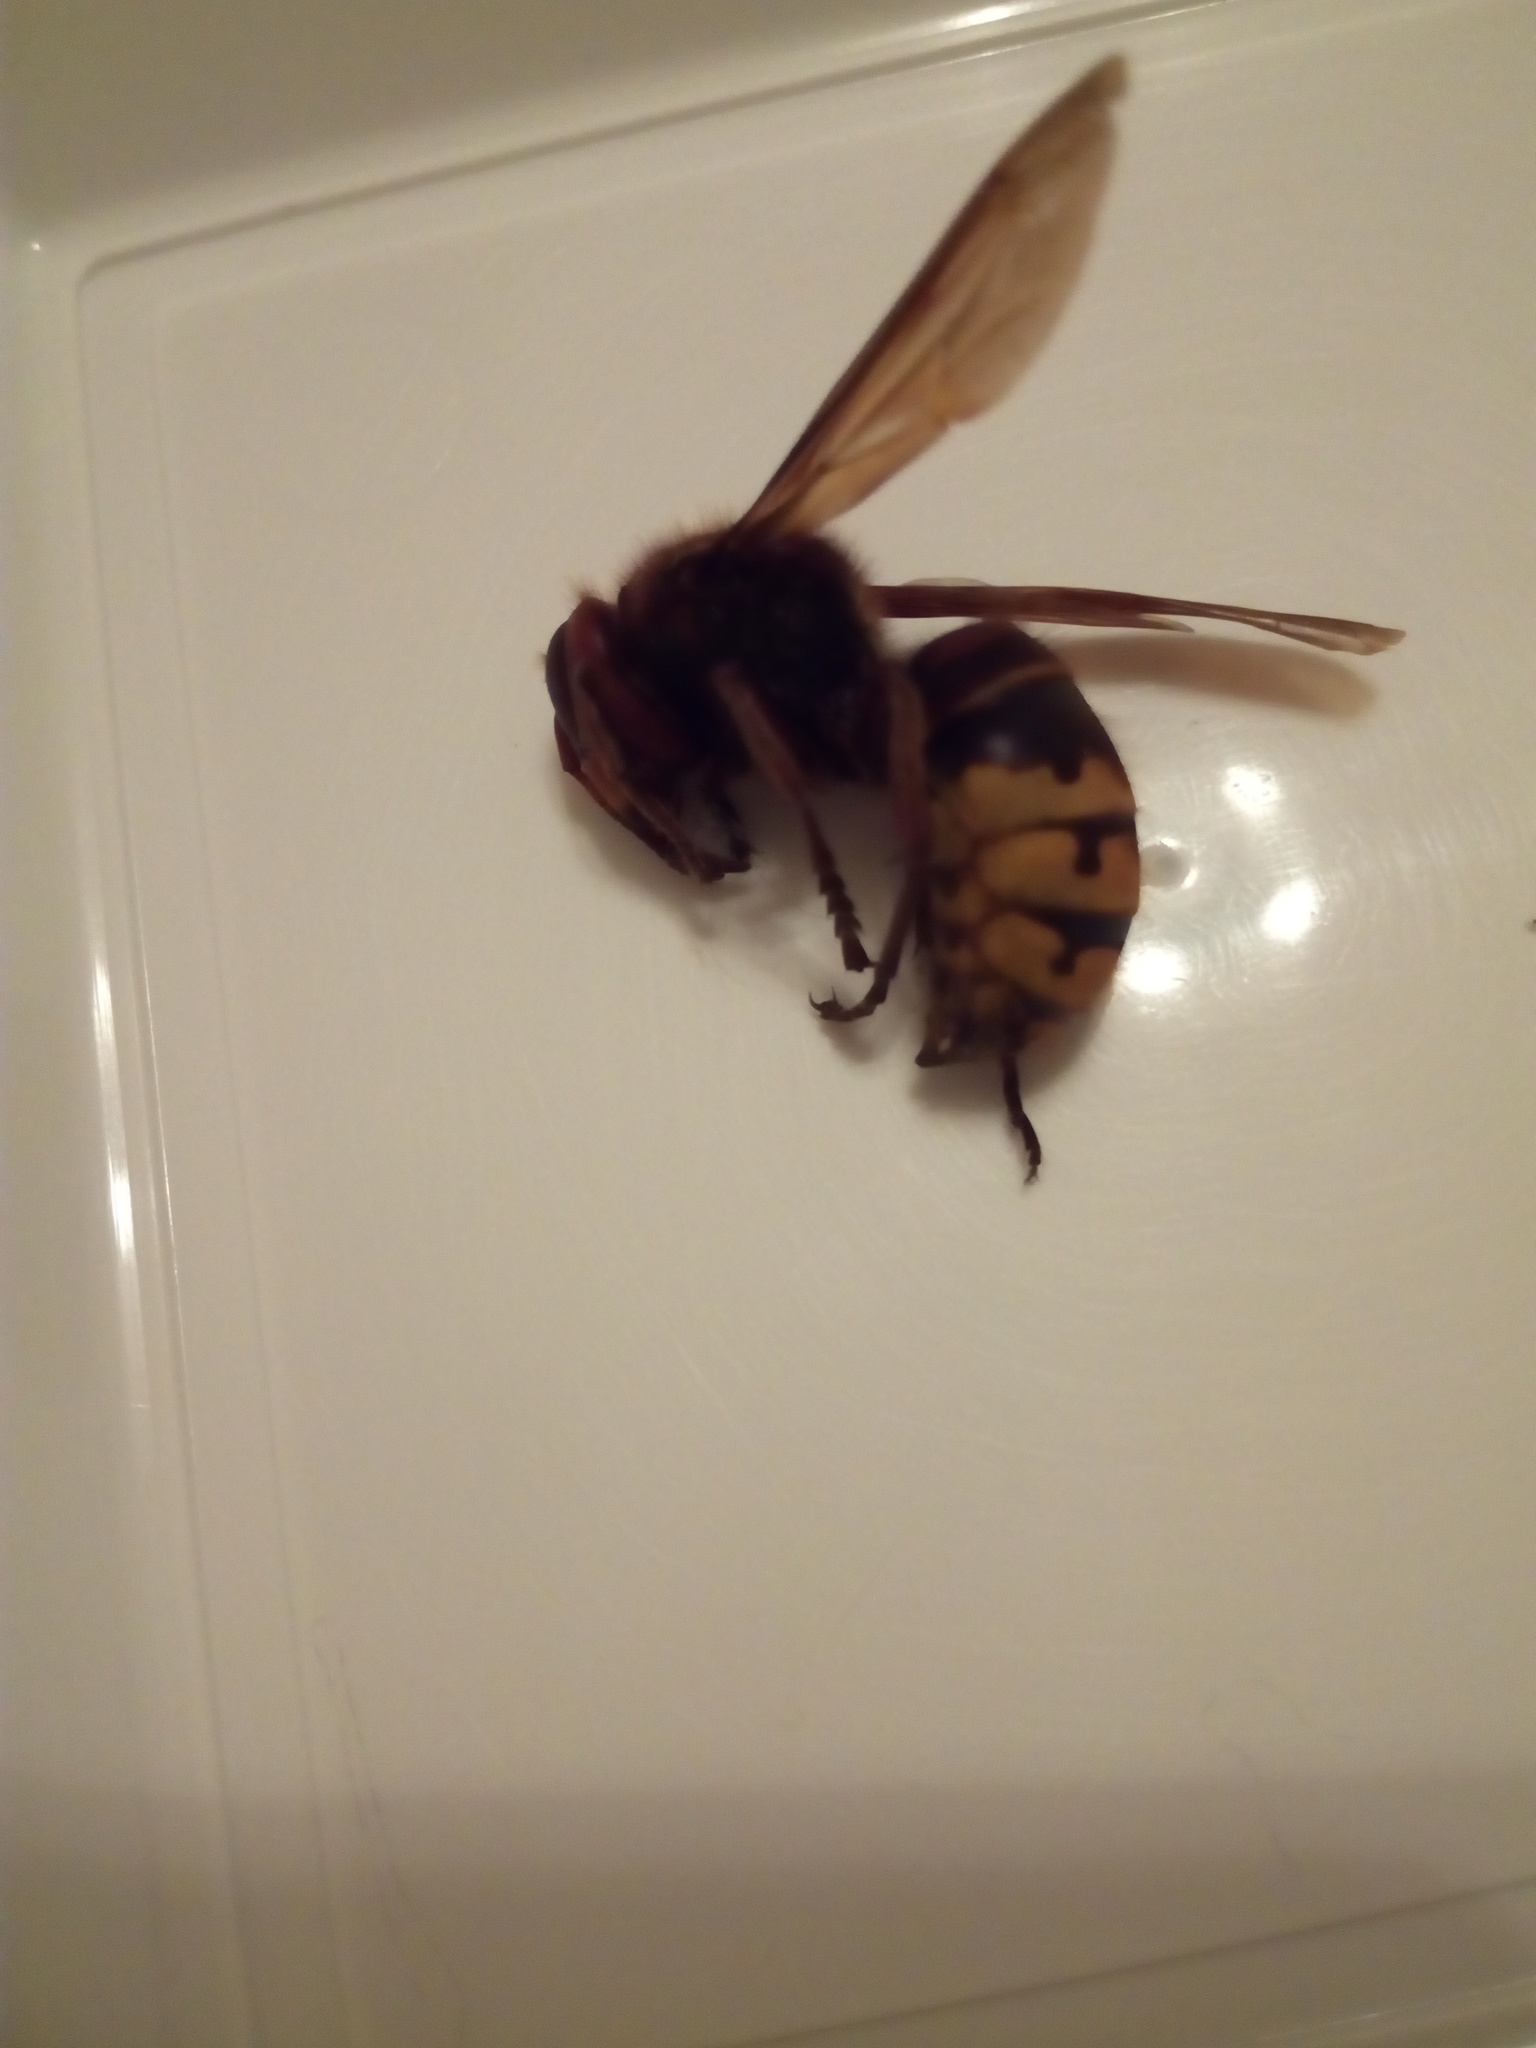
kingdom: Animalia
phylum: Arthropoda
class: Insecta
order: Hymenoptera
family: Vespidae
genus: Vespa
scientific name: Vespa crabro
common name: Hornet
